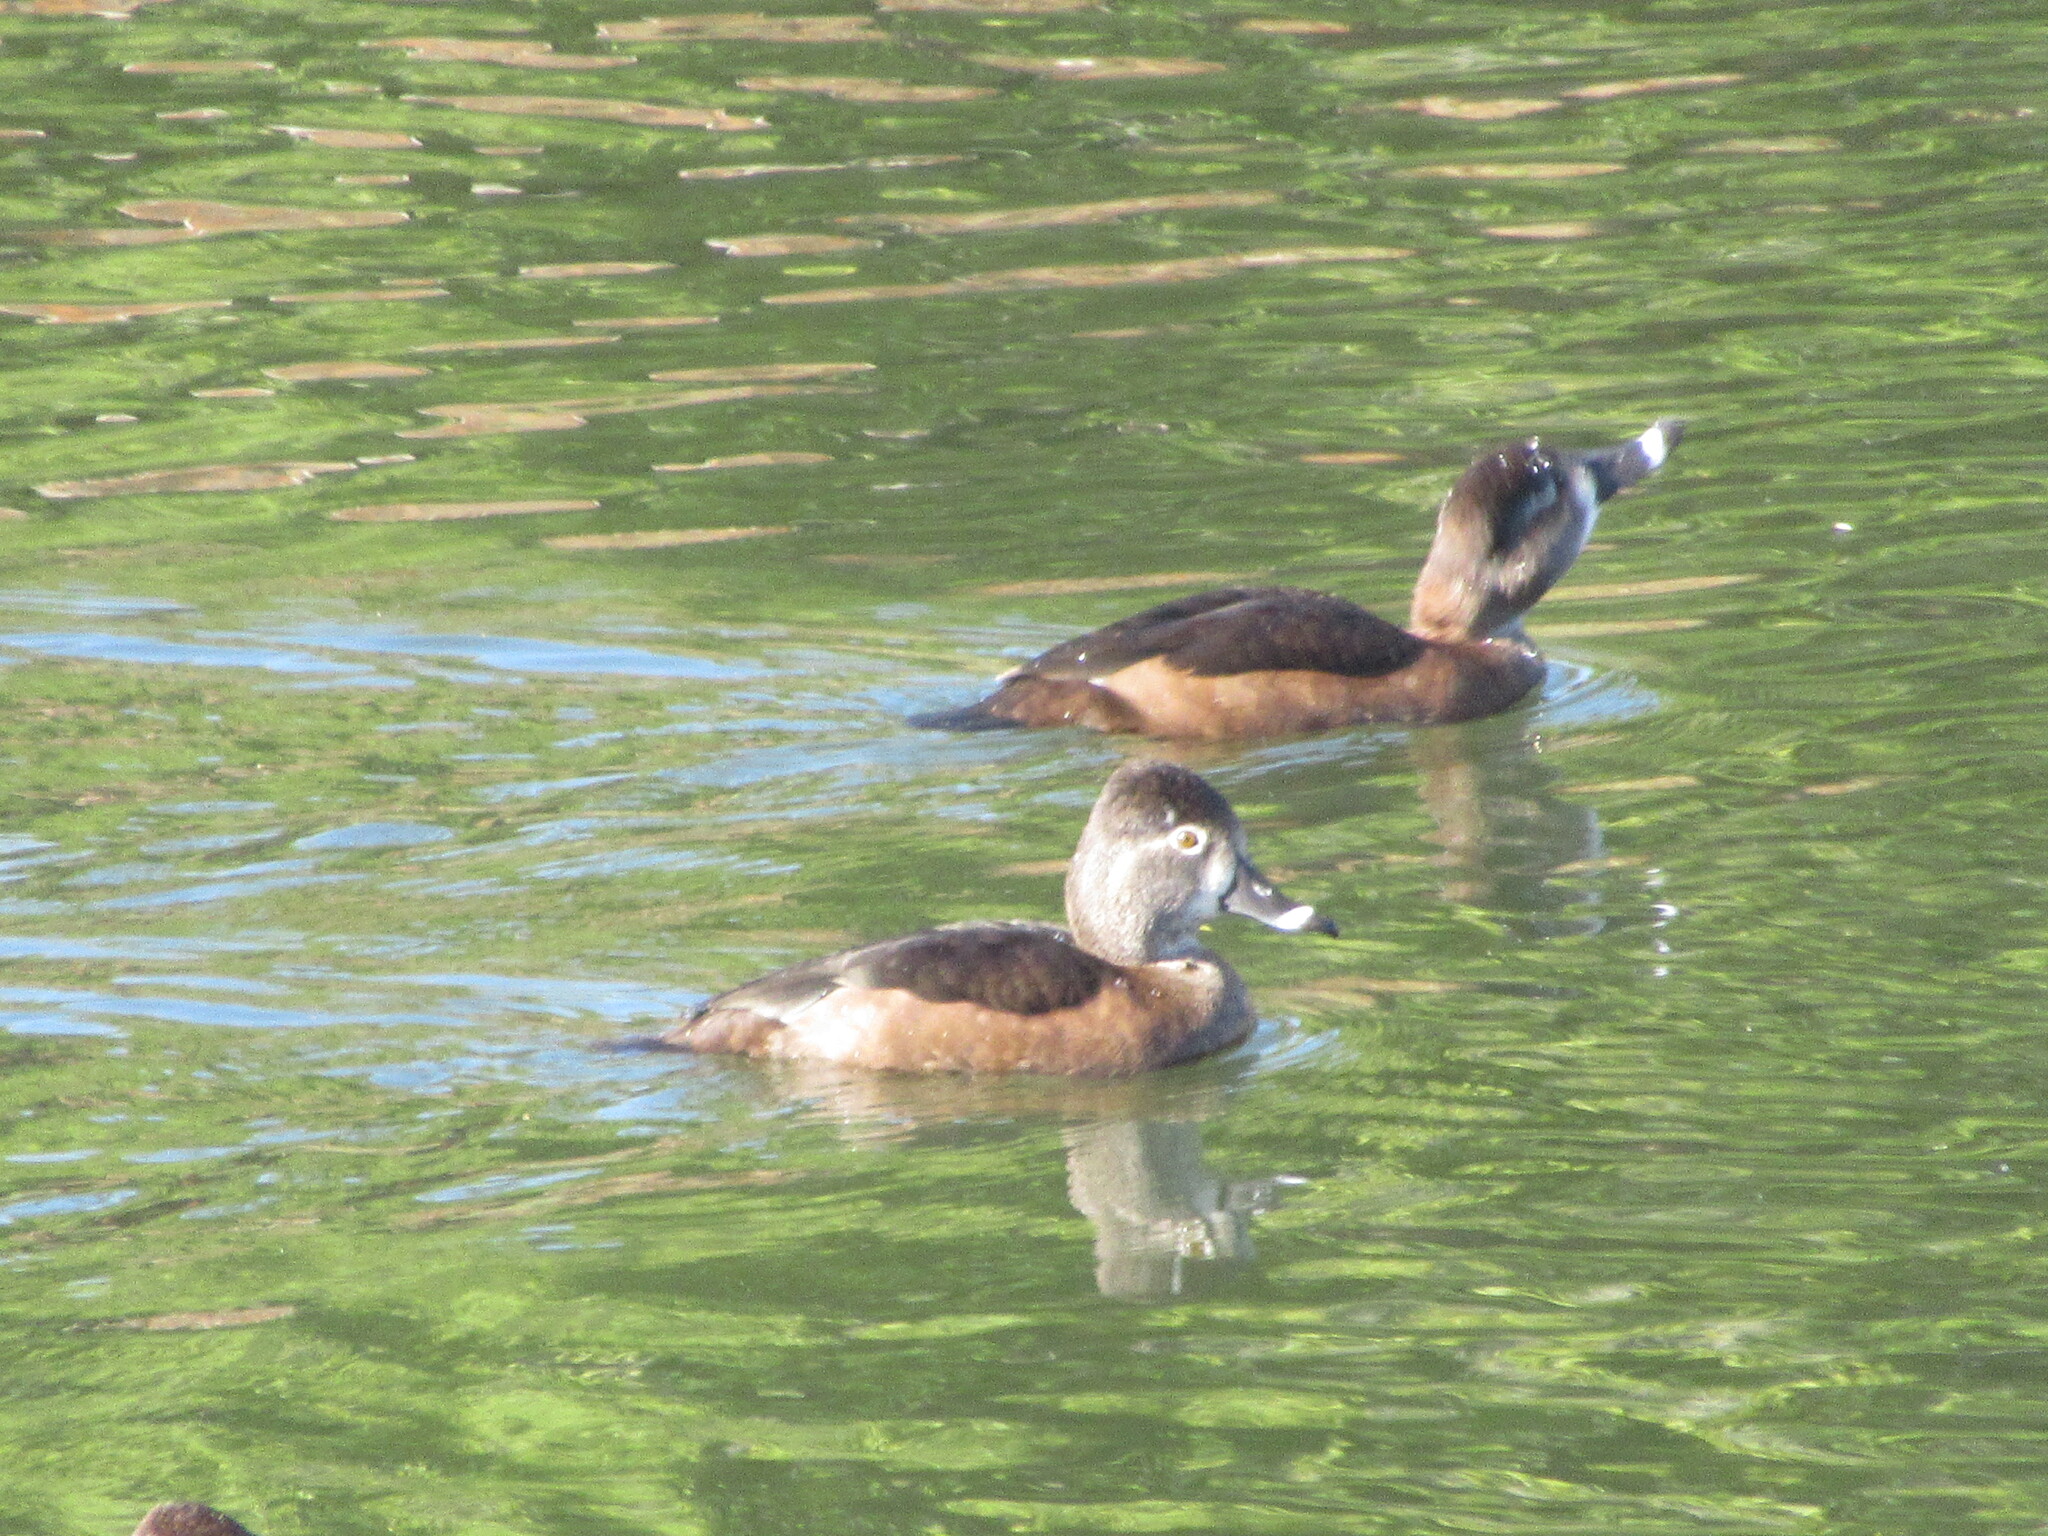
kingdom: Animalia
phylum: Chordata
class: Aves
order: Anseriformes
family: Anatidae
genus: Aythya
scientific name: Aythya collaris
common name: Ring-necked duck
